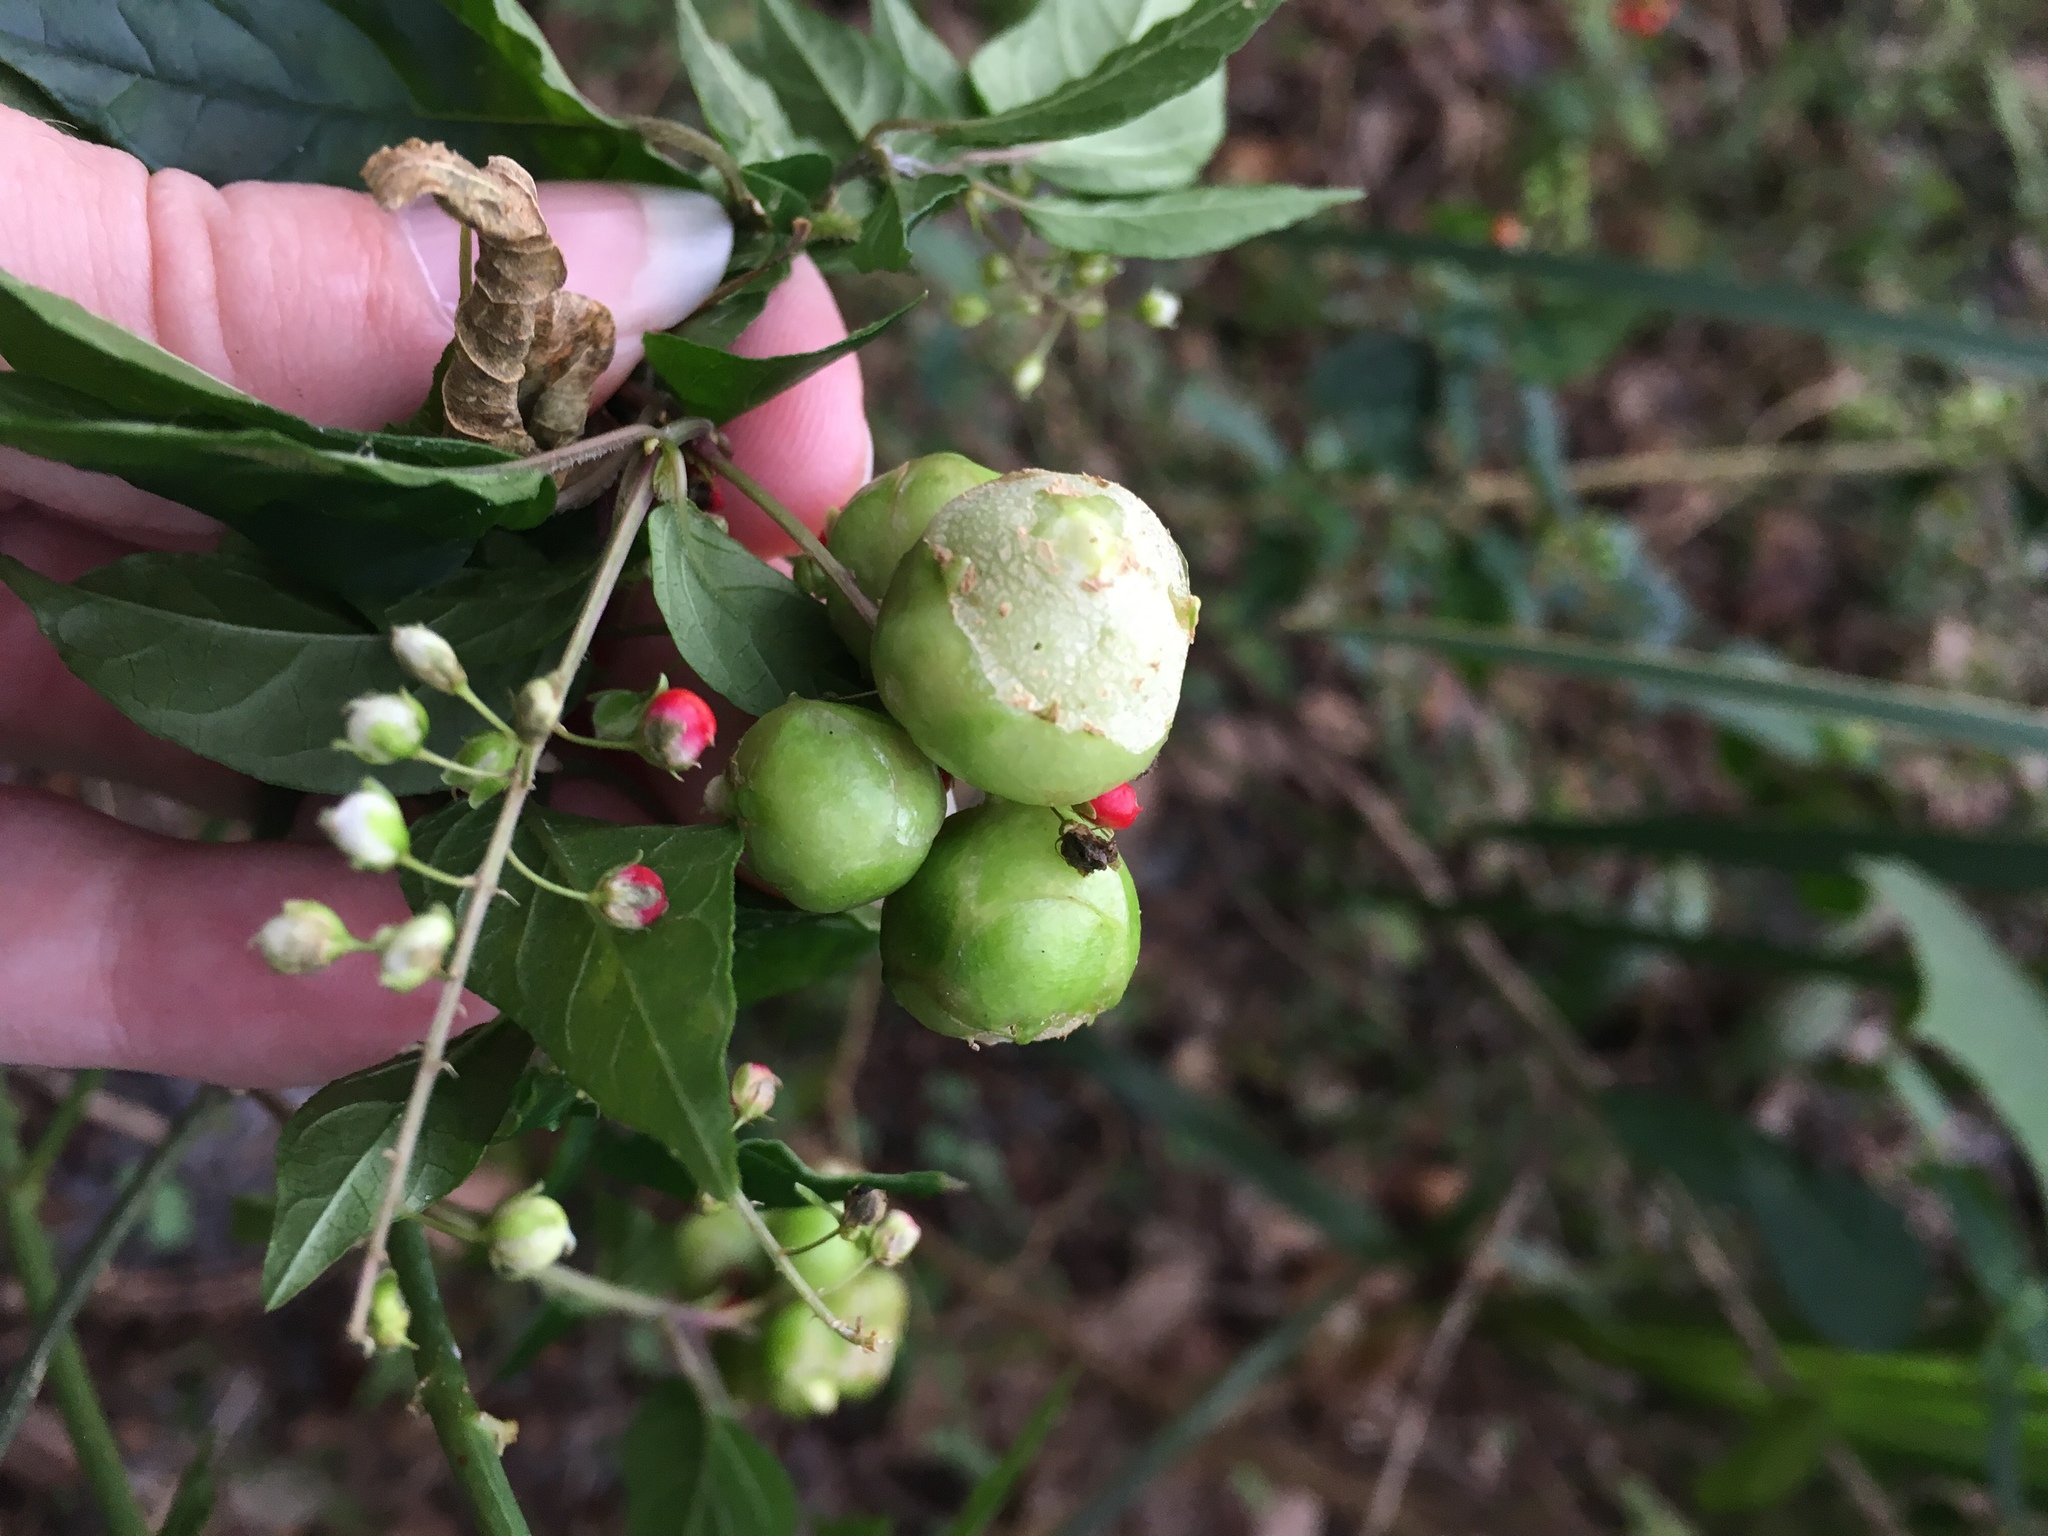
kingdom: Animalia
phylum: Arthropoda
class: Insecta
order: Diptera
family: Cecidomyiidae
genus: Schizomyia
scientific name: Schizomyia rivinae
